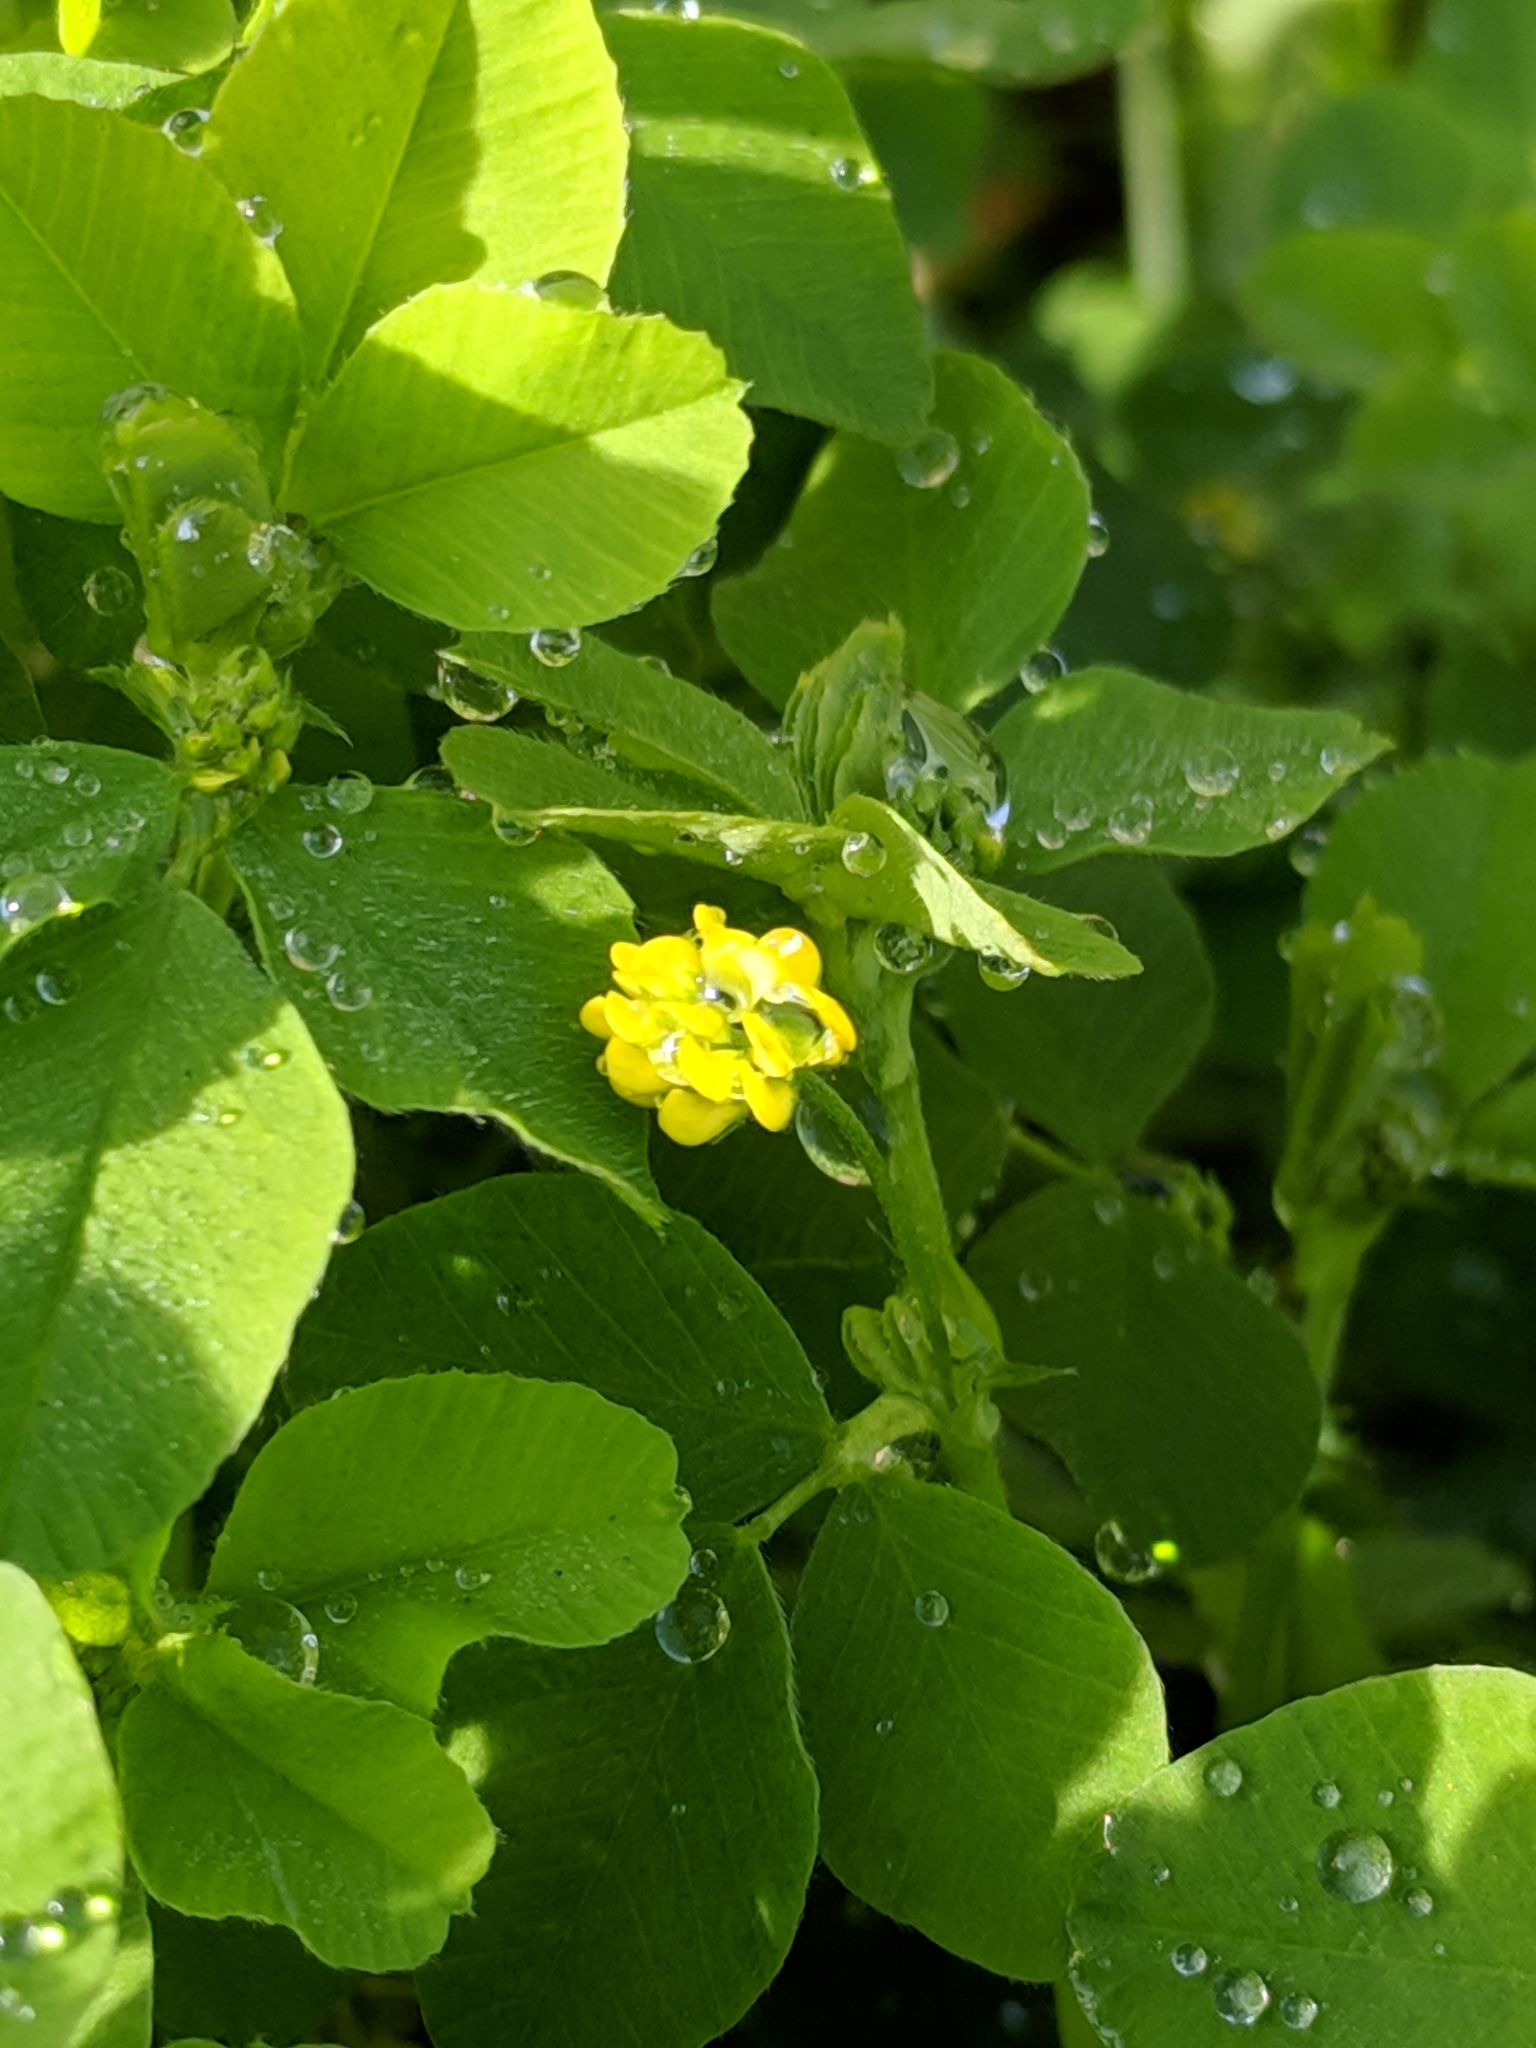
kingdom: Plantae
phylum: Tracheophyta
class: Magnoliopsida
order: Fabales
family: Fabaceae
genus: Medicago
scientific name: Medicago lupulina
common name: Black medick
